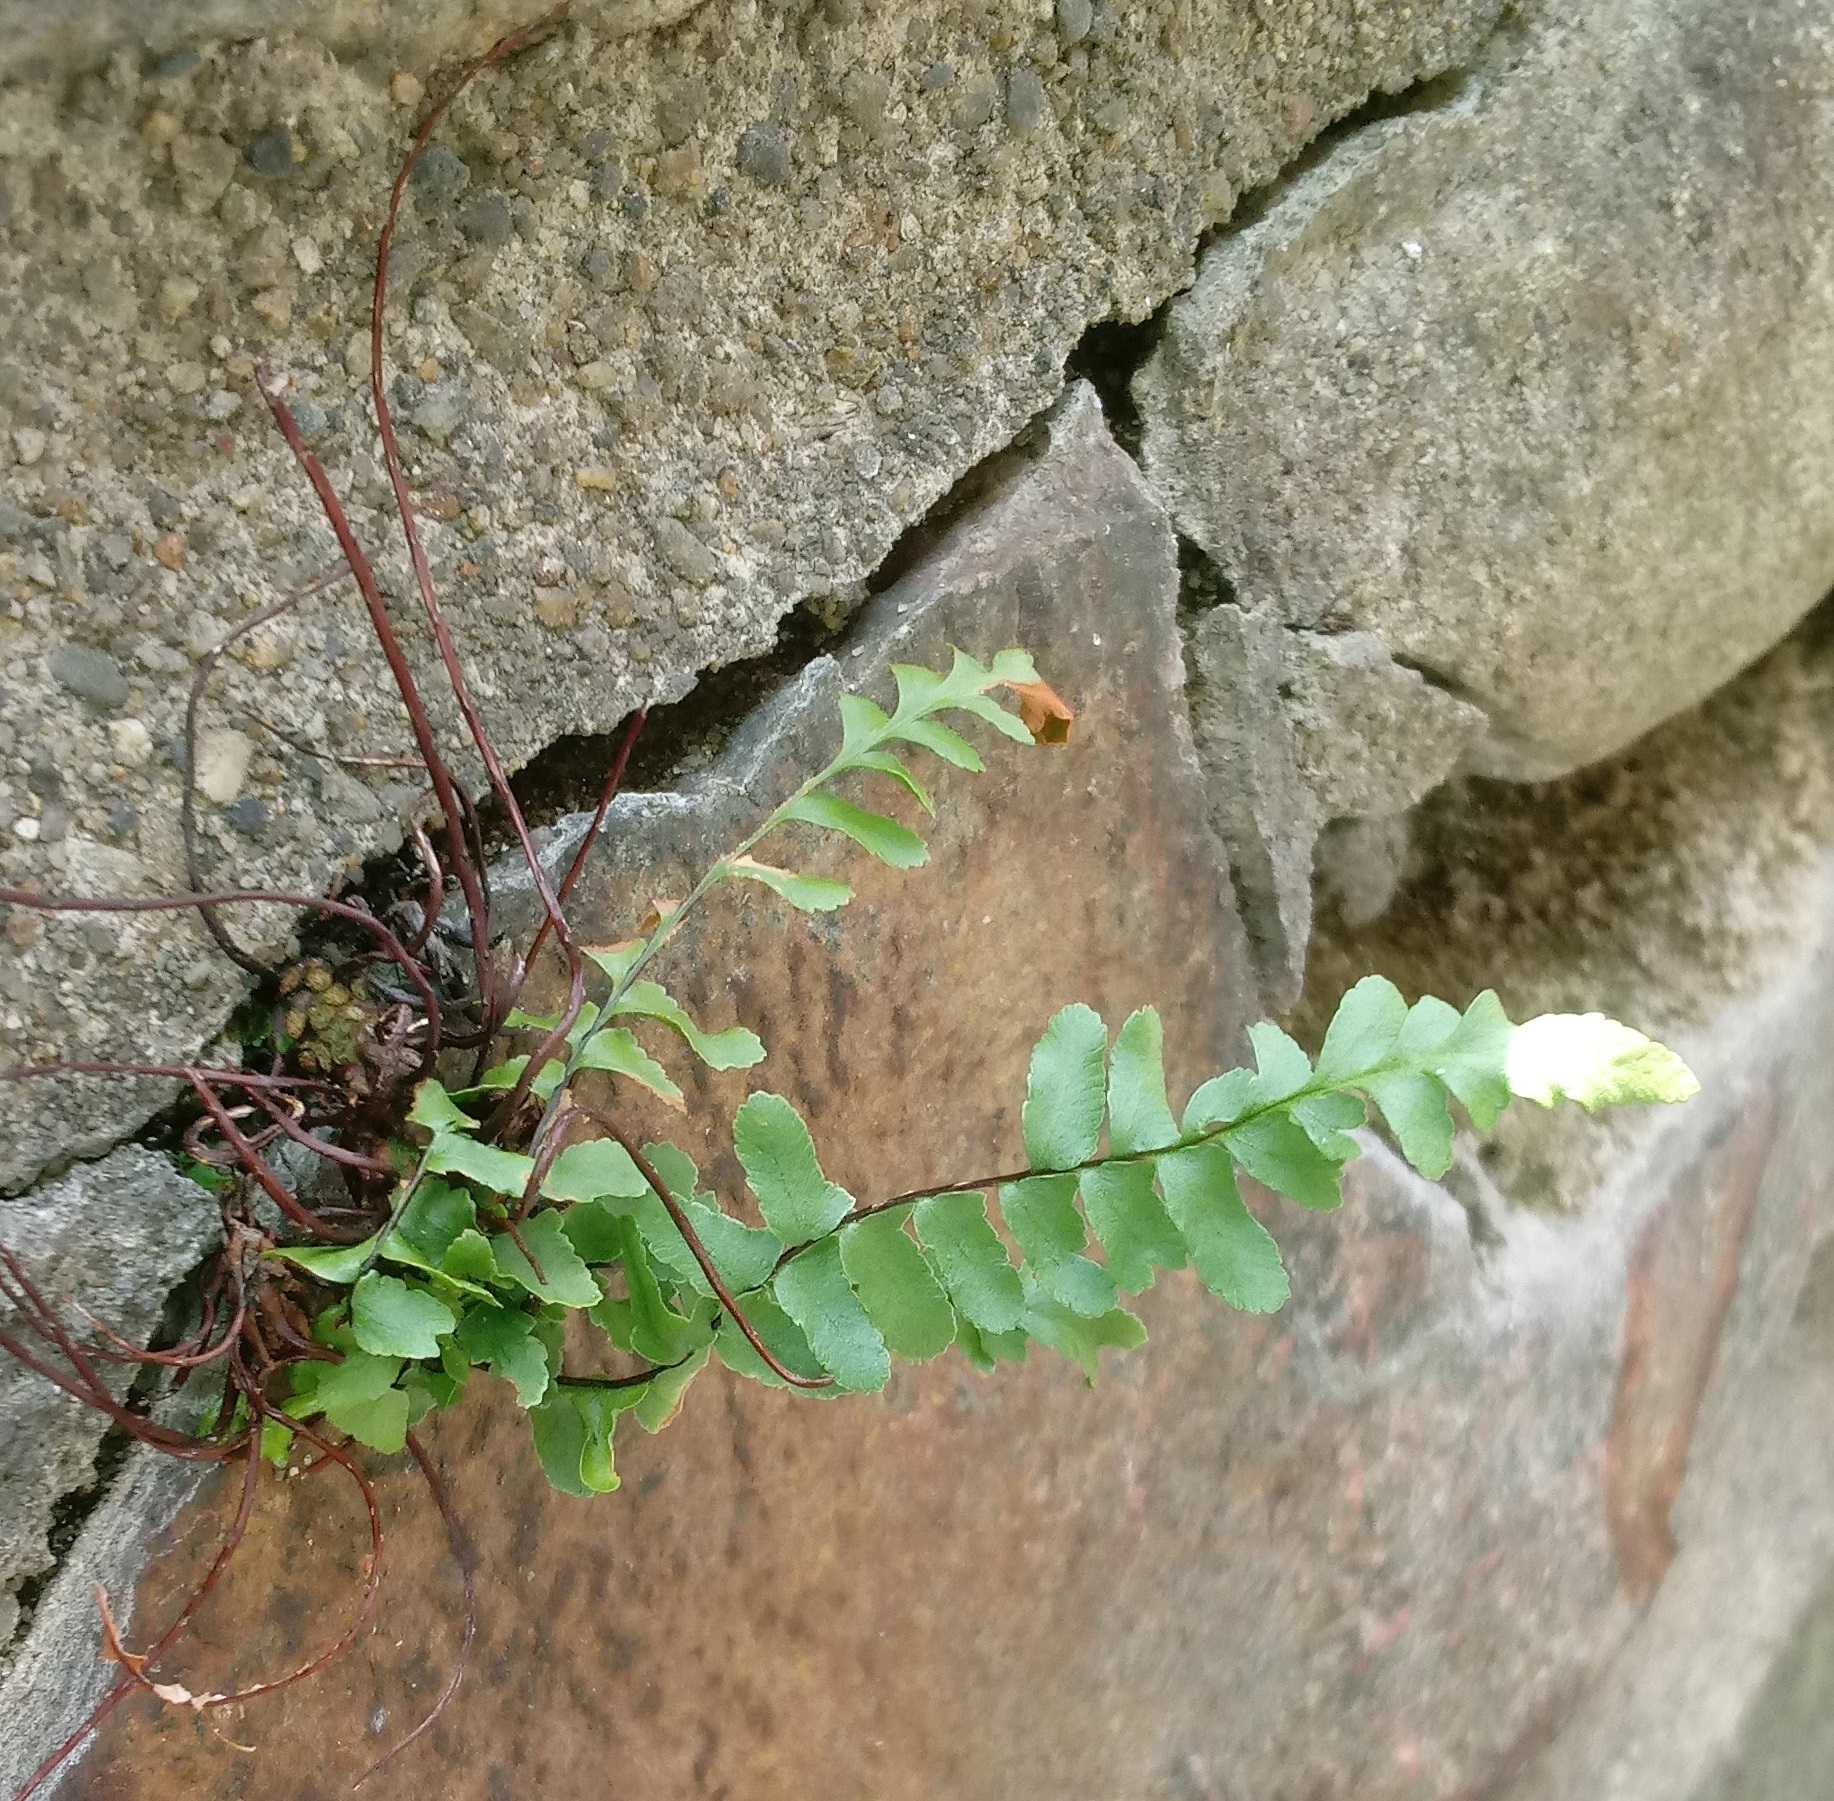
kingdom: Plantae
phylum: Tracheophyta
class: Polypodiopsida
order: Polypodiales
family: Aspleniaceae
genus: Asplenium
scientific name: Asplenium platyneuron
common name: Ebony spleenwort
